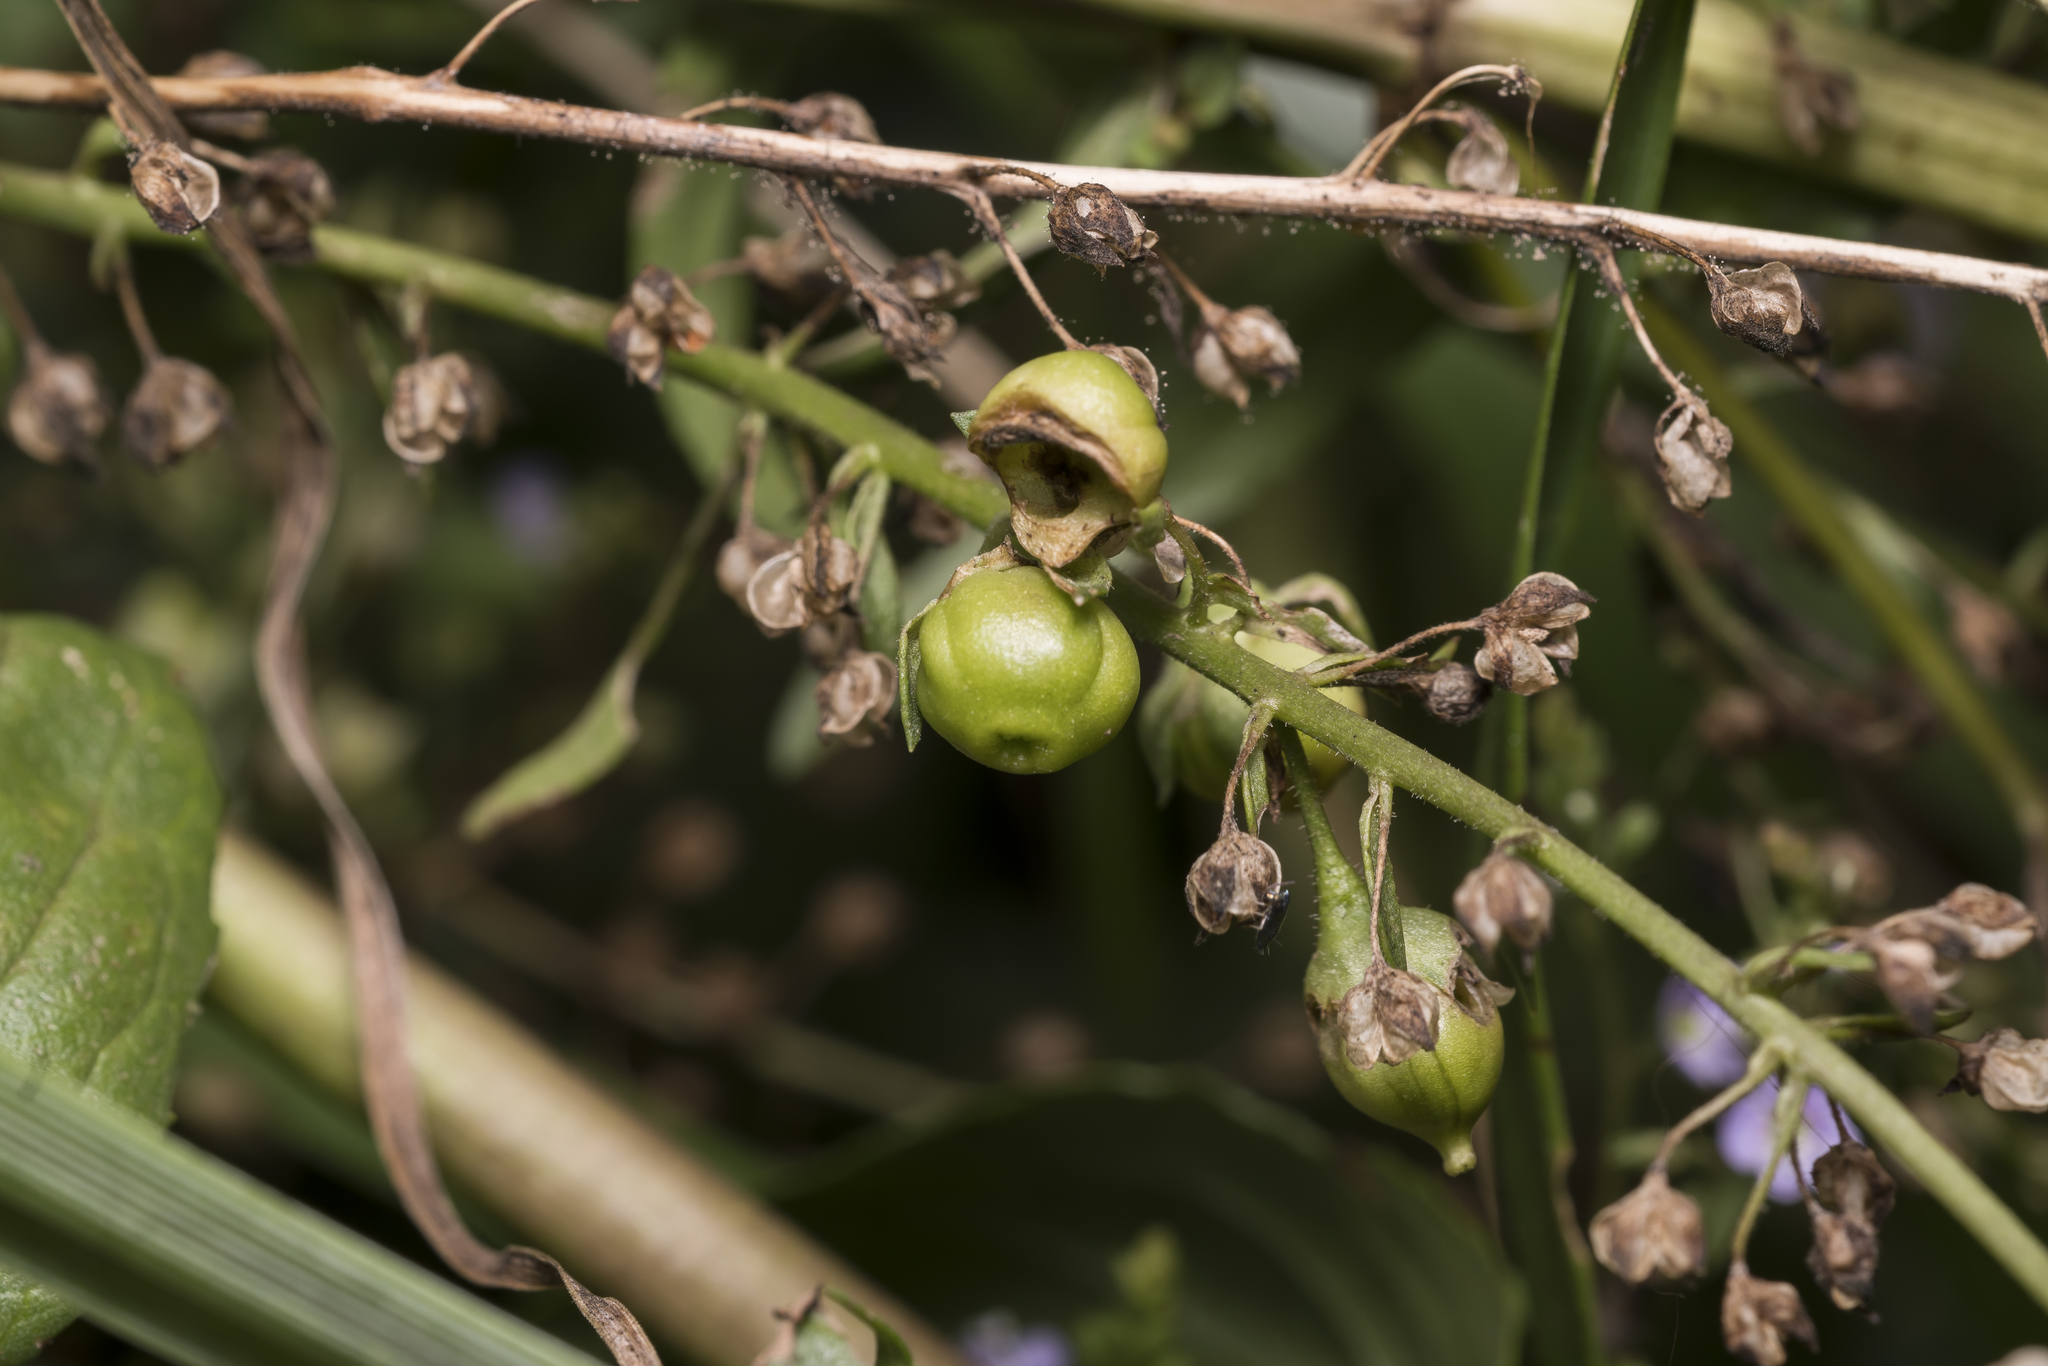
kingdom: Plantae
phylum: Tracheophyta
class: Magnoliopsida
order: Lamiales
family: Plantaginaceae
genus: Veronica
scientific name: Veronica anagallis-aquatica
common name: Water speedwell
